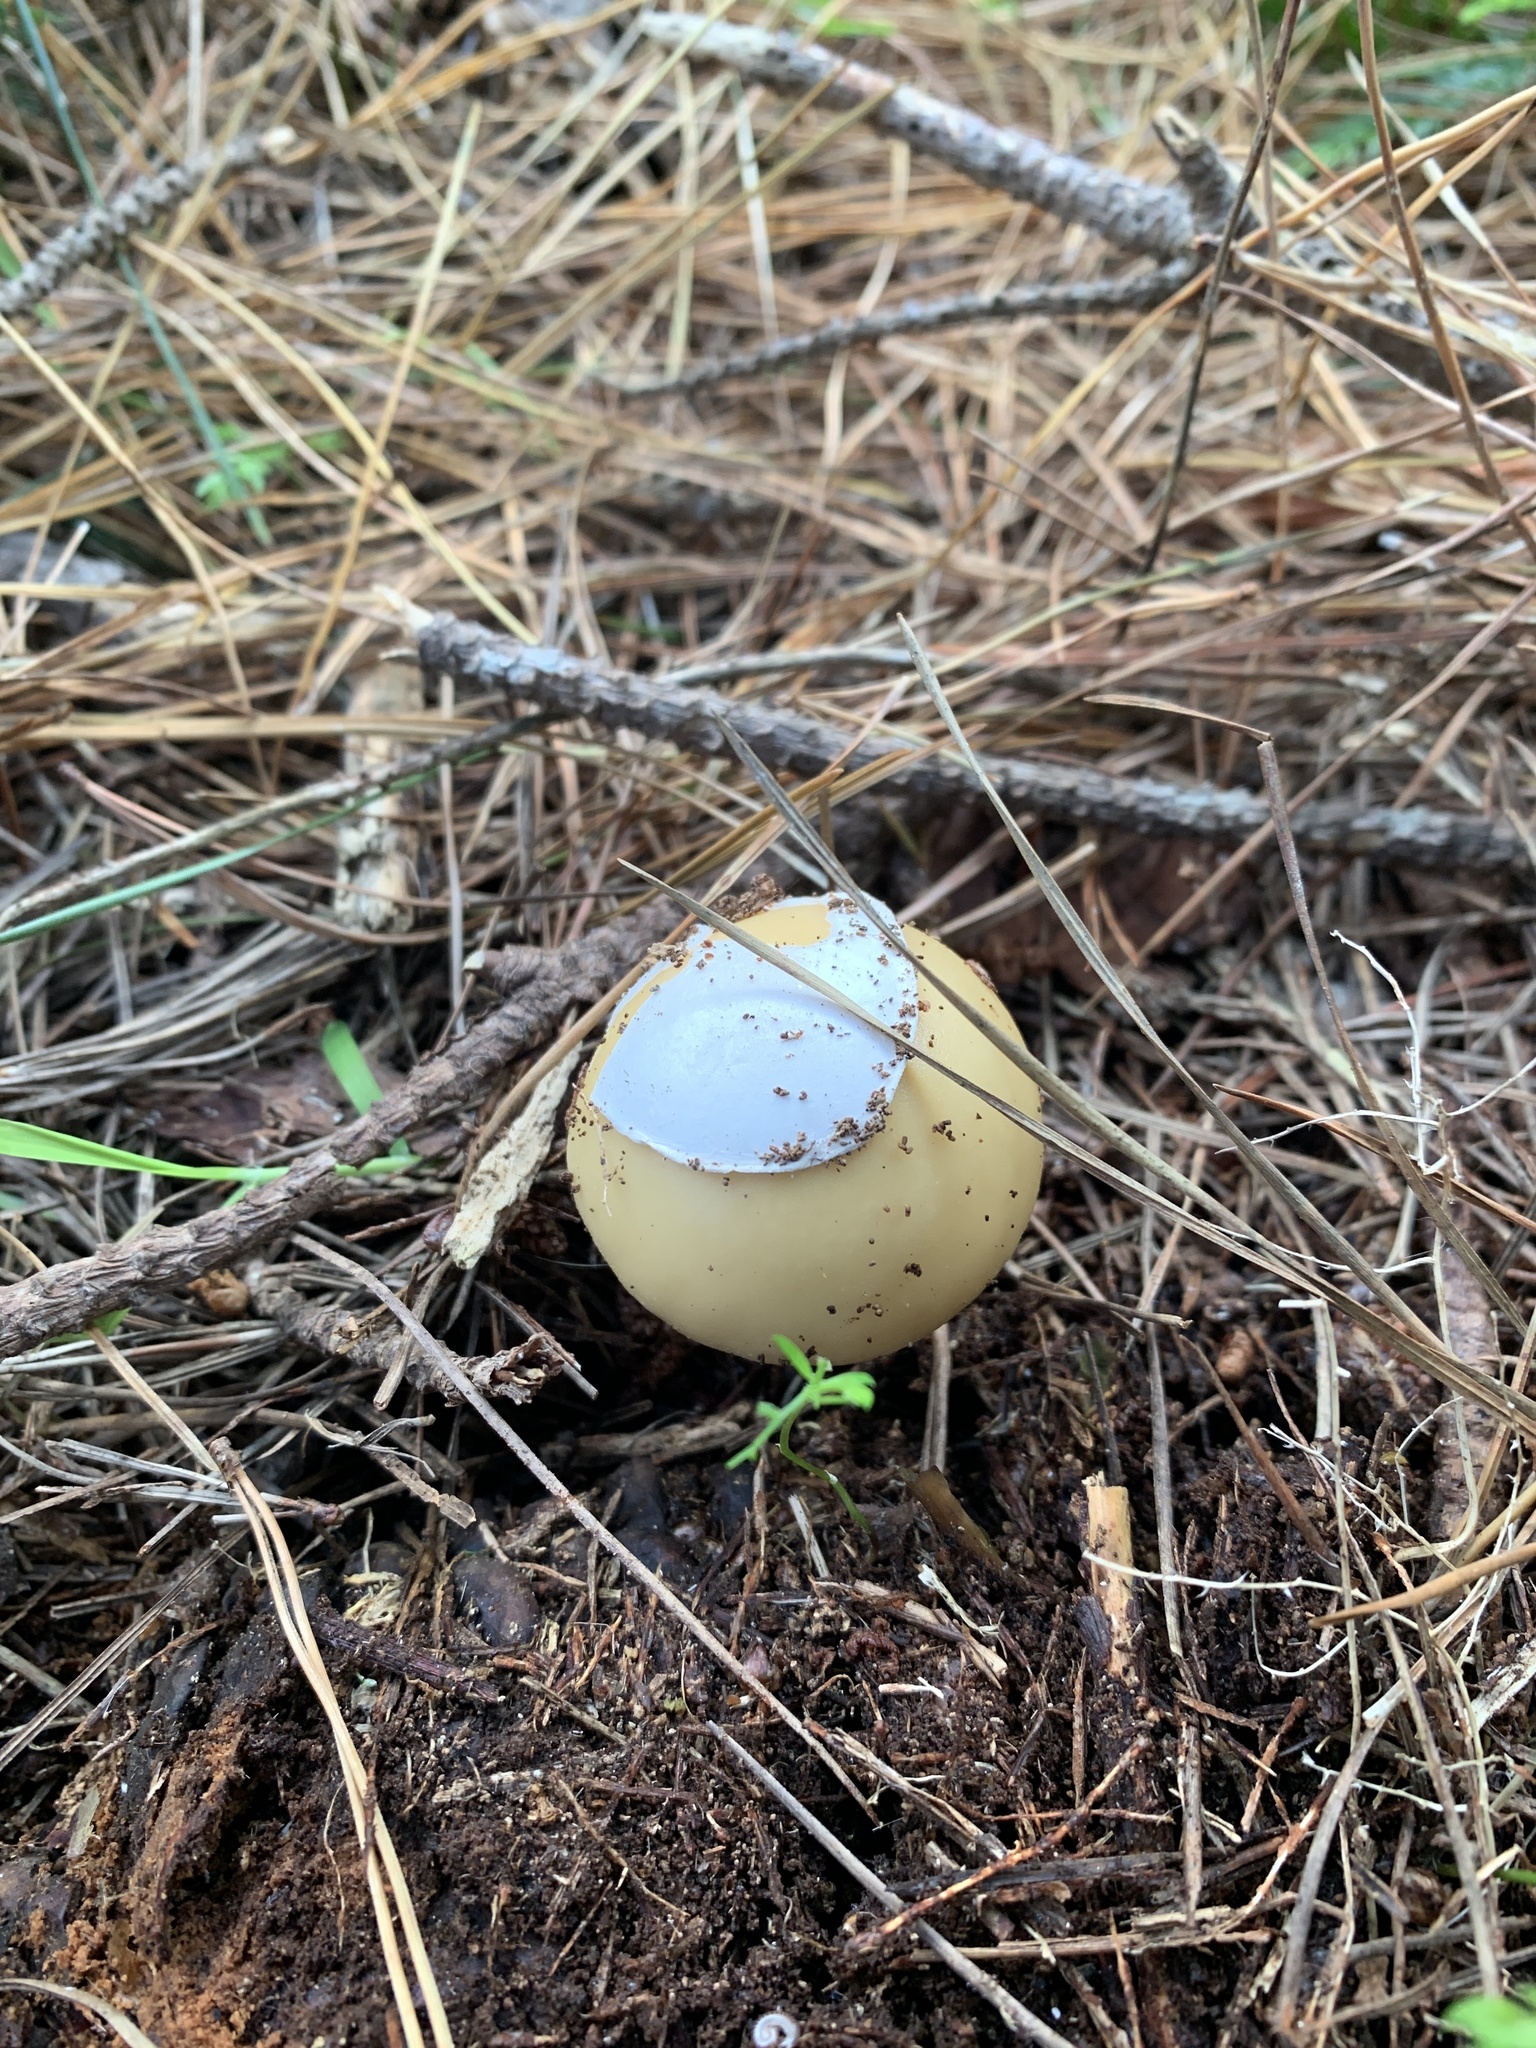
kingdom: Fungi
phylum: Basidiomycota
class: Agaricomycetes
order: Agaricales
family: Amanitaceae
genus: Amanita
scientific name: Amanita gemmata
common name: Jewelled amanita
